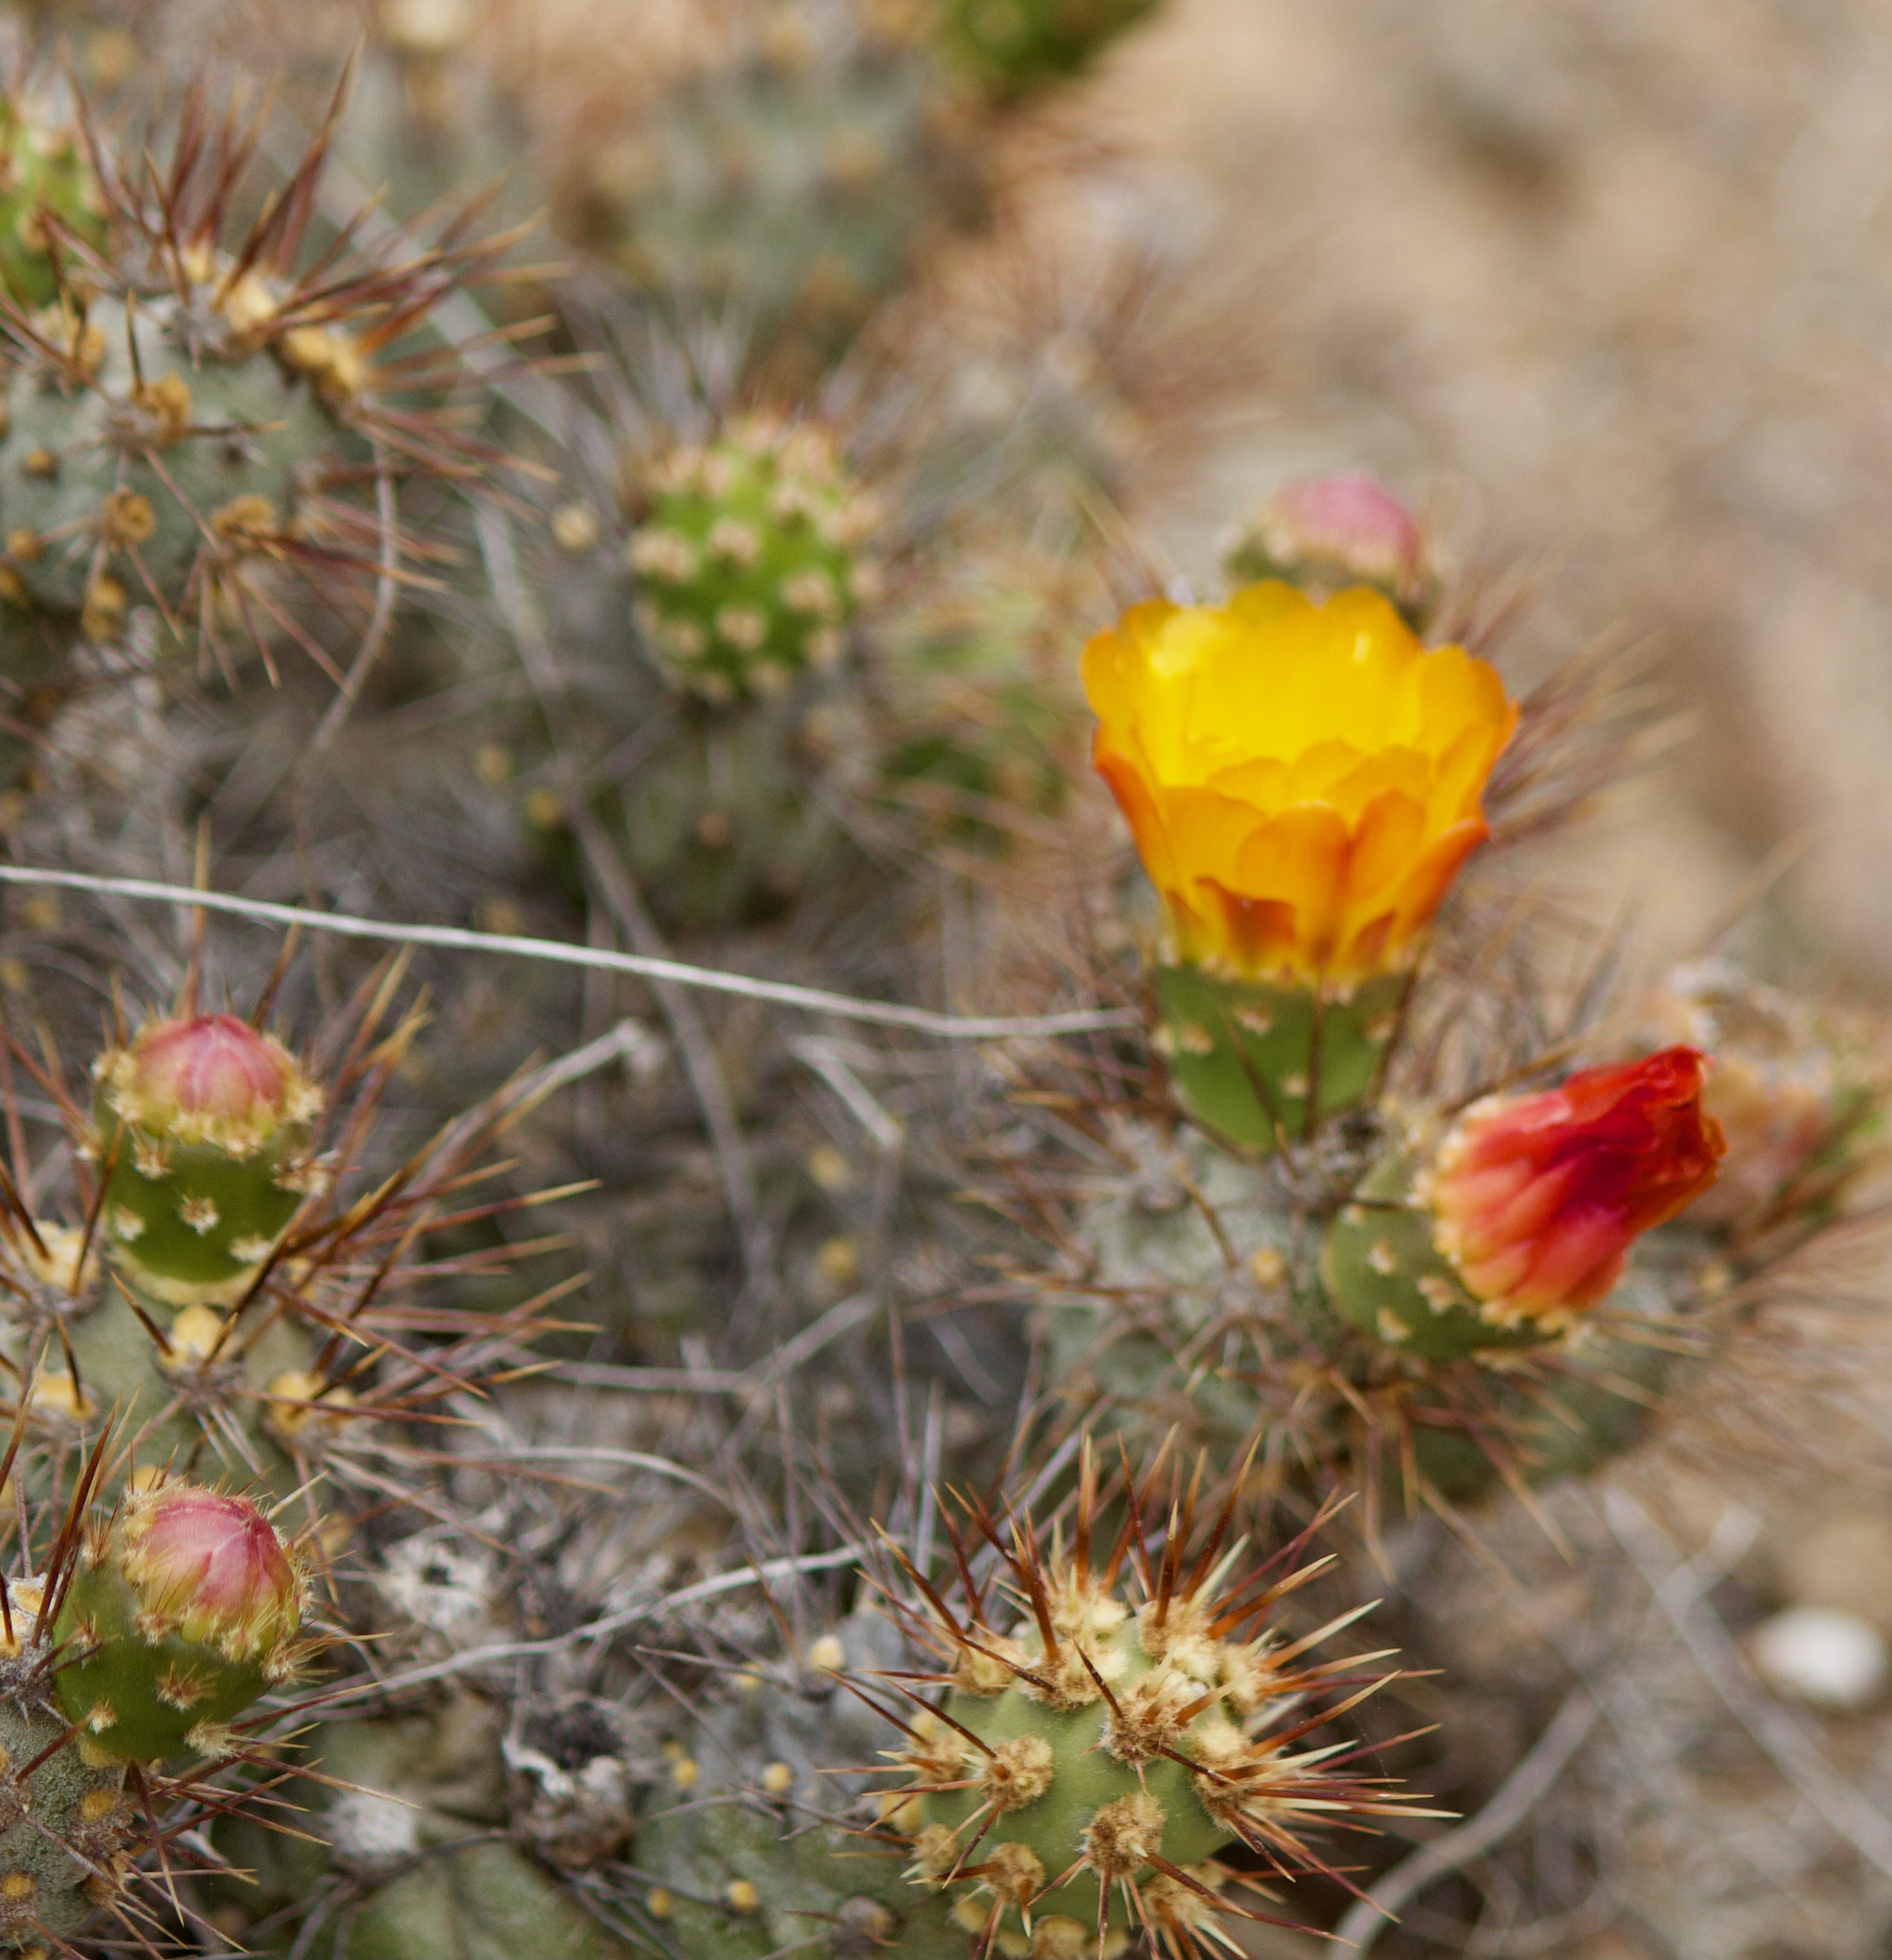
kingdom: Plantae
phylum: Tracheophyta
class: Magnoliopsida
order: Caryophyllales
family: Cactaceae
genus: Cumulopuntia
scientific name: Cumulopuntia leucophaea
